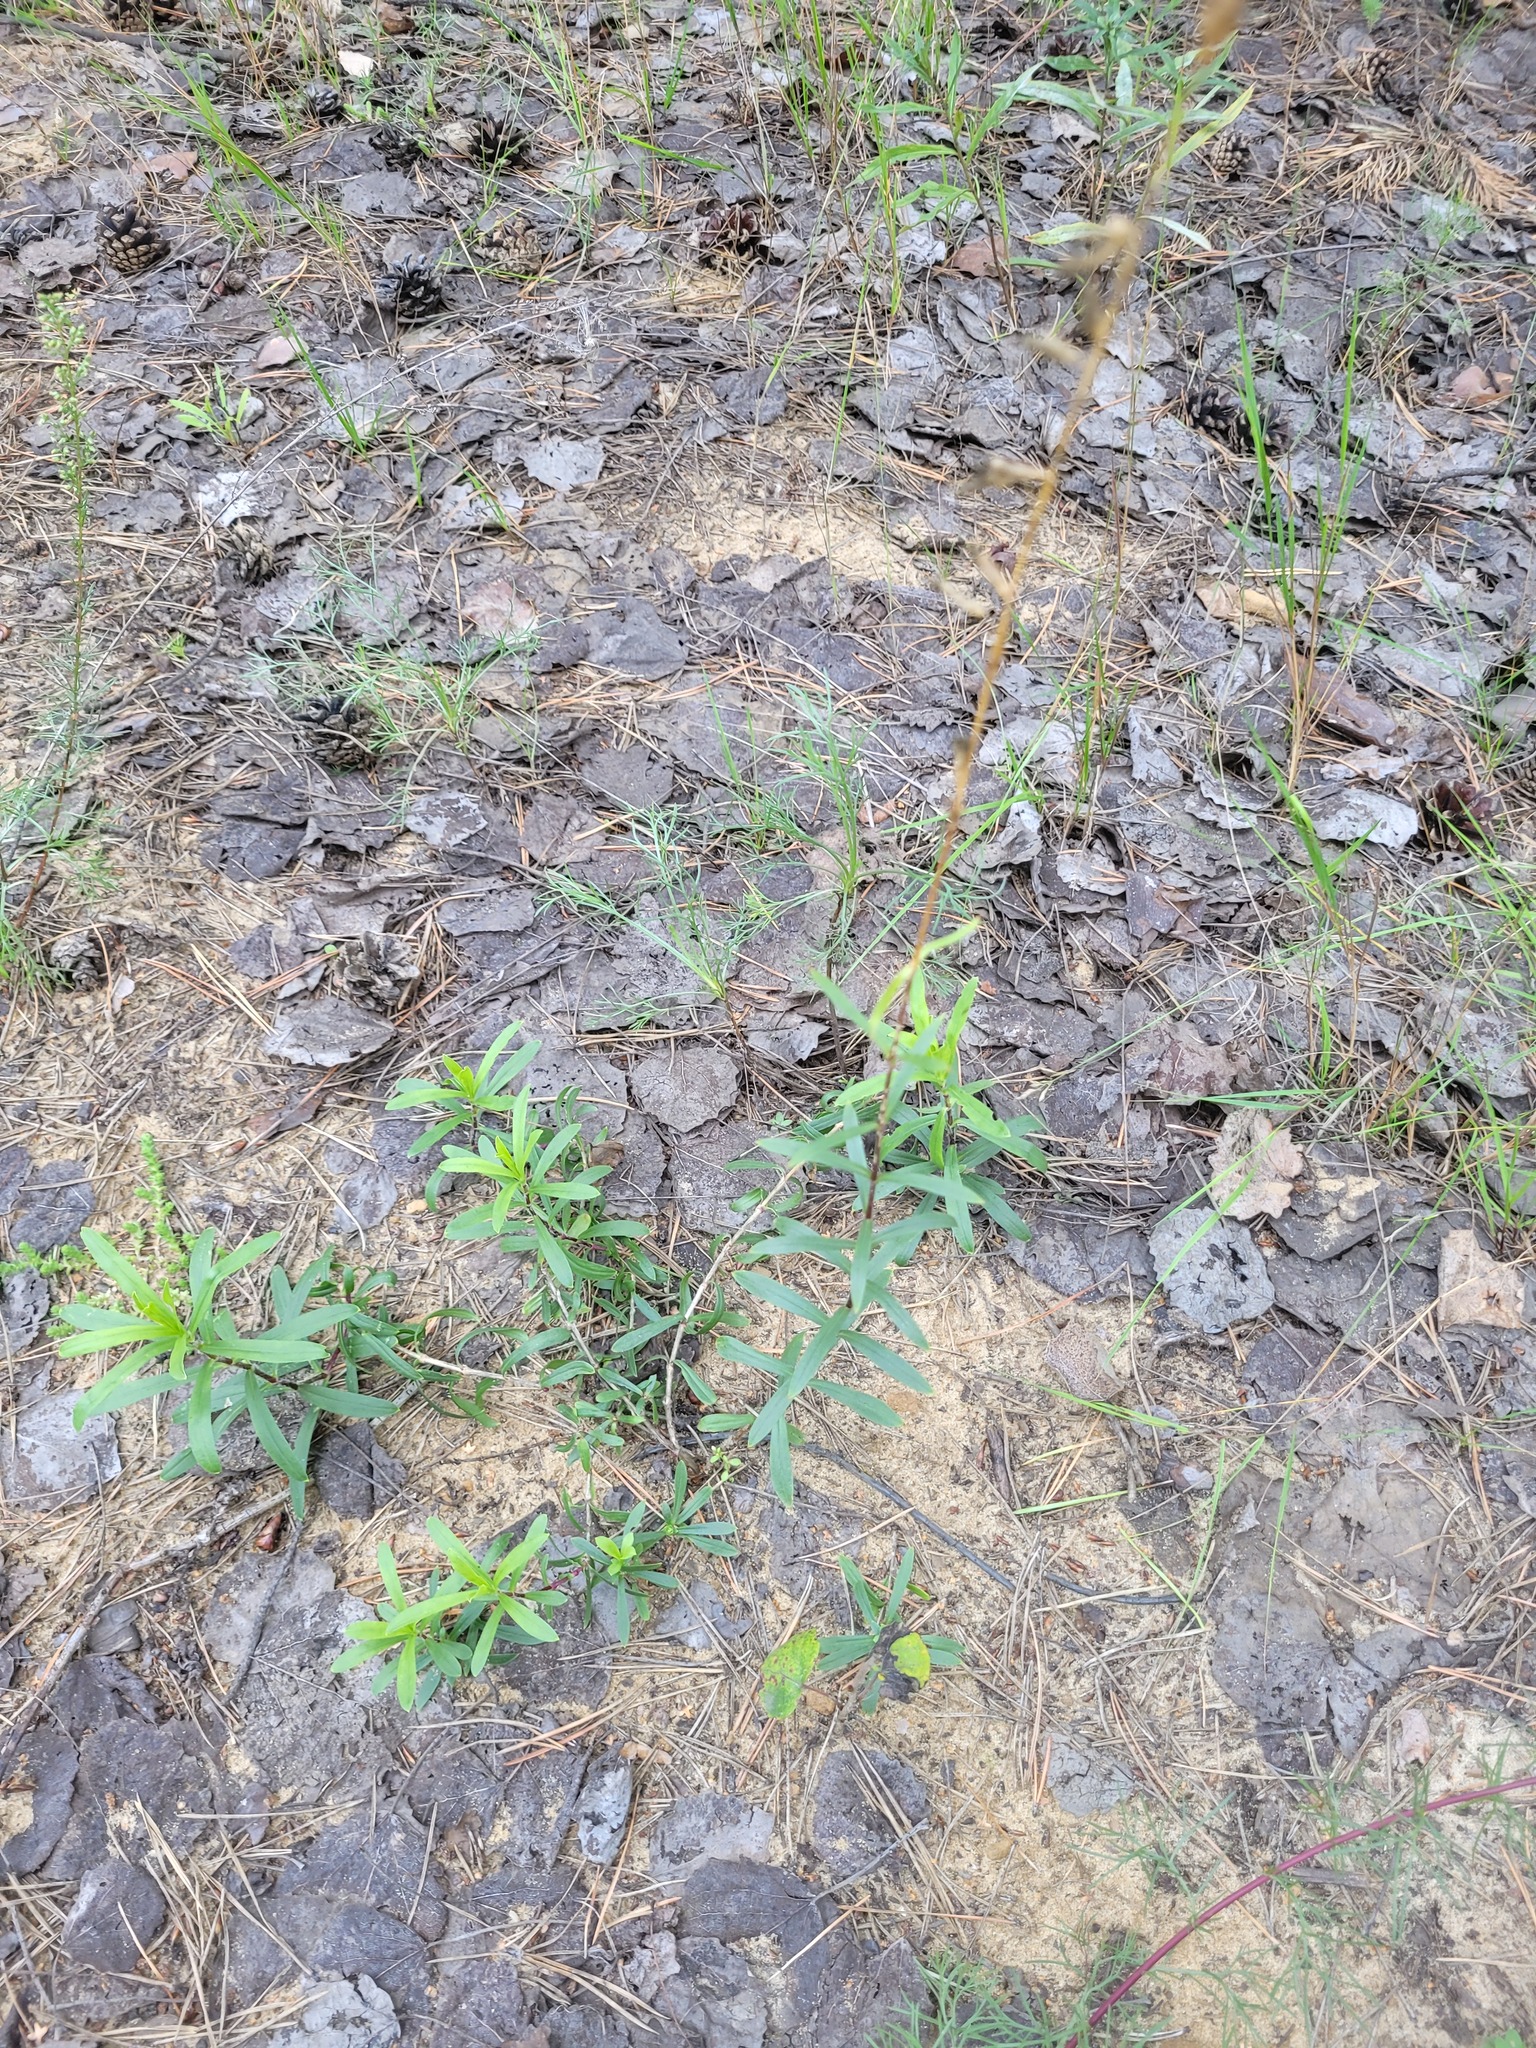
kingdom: Plantae
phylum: Tracheophyta
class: Magnoliopsida
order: Caryophyllales
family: Caryophyllaceae
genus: Silene
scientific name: Silene tatarica
